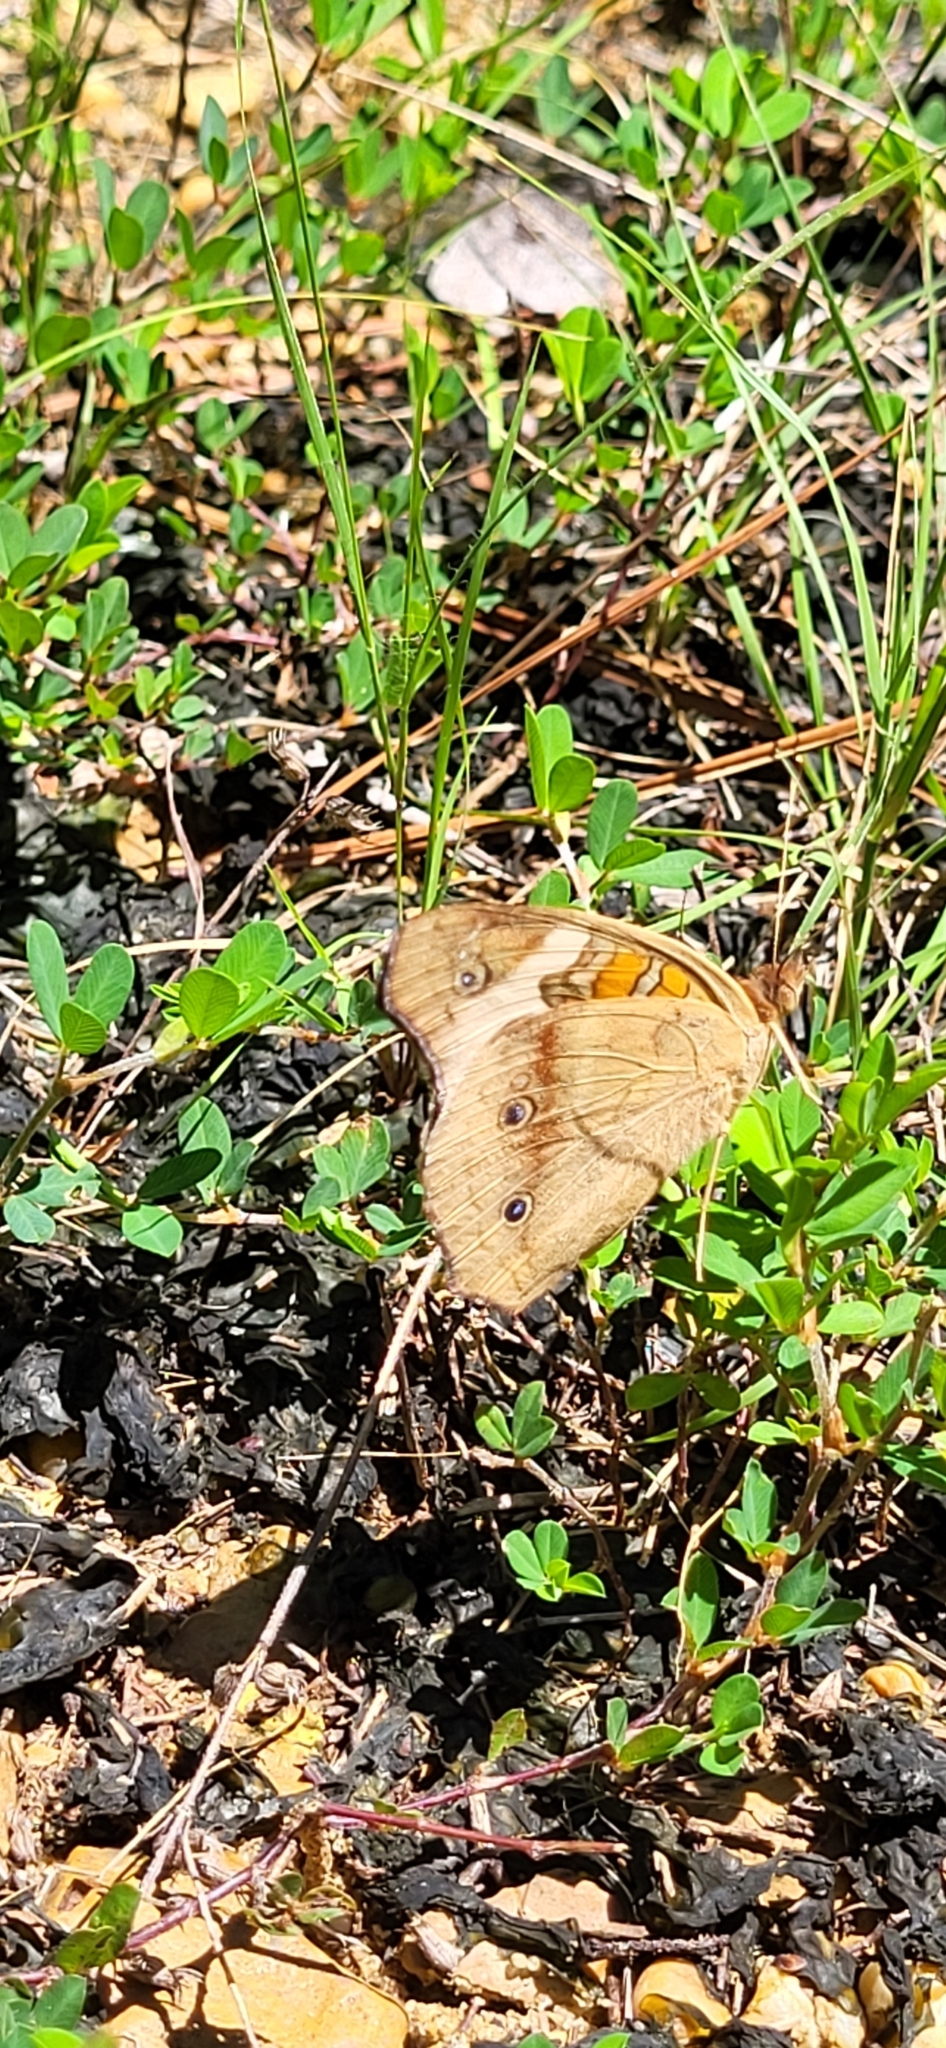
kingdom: Animalia
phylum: Arthropoda
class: Insecta
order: Lepidoptera
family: Nymphalidae
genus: Junonia
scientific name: Junonia coenia
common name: Common buckeye
